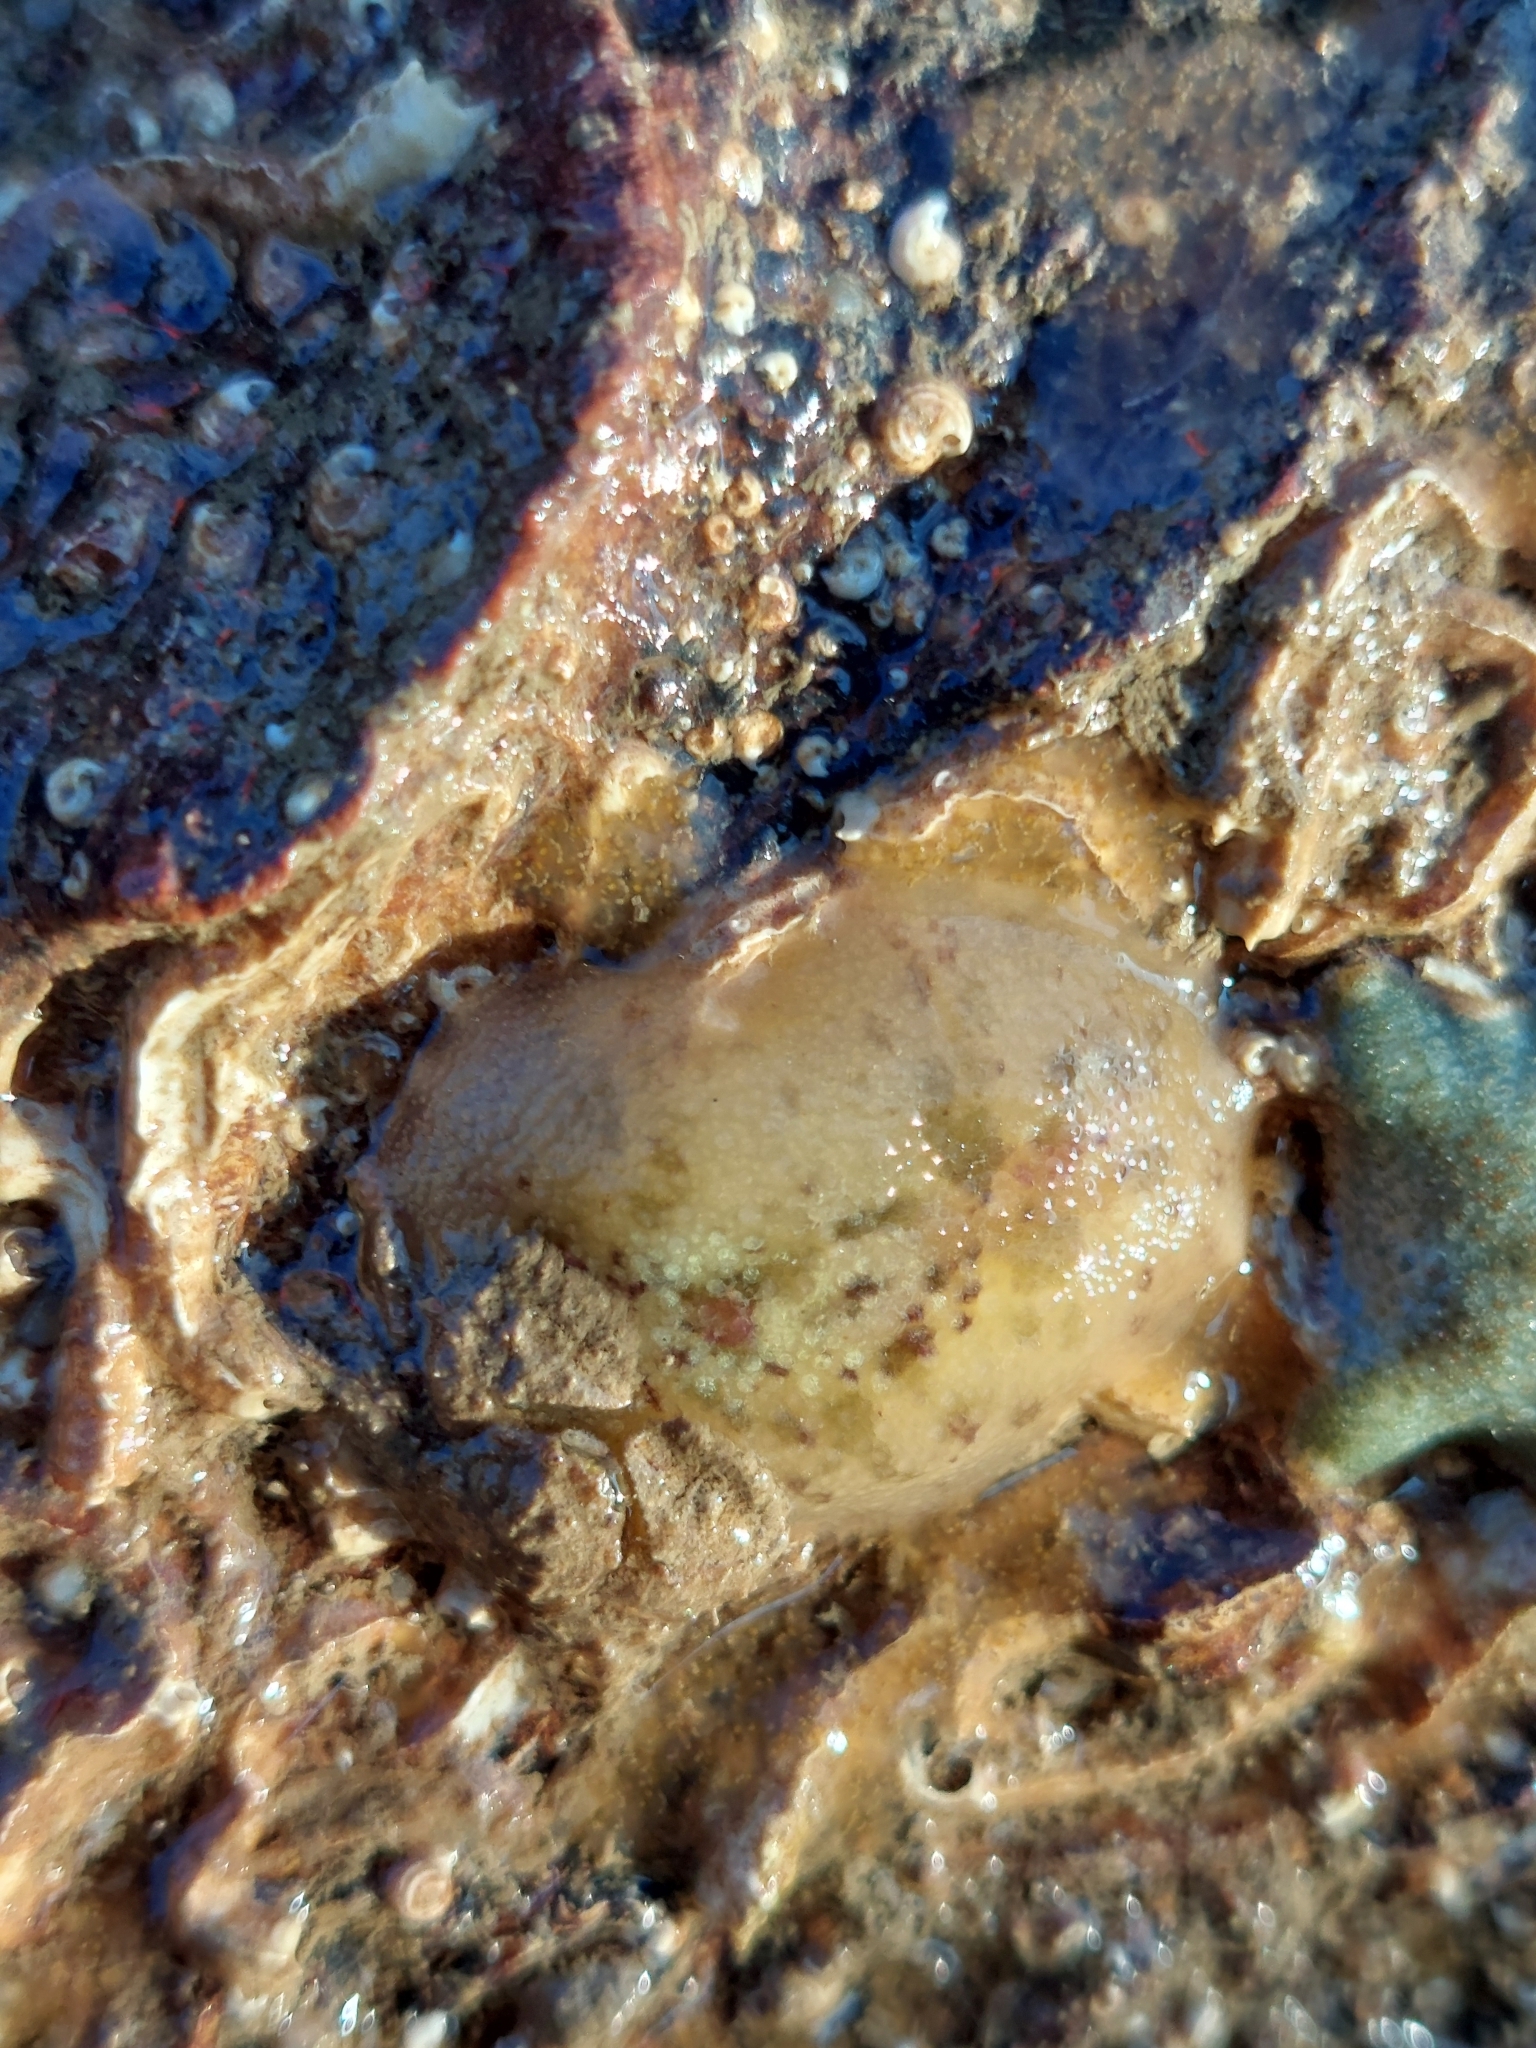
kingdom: Animalia
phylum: Mollusca
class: Gastropoda
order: Nudibranchia
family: Dorididae
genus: Doris
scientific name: Doris pseudoargus
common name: Sea lemon
